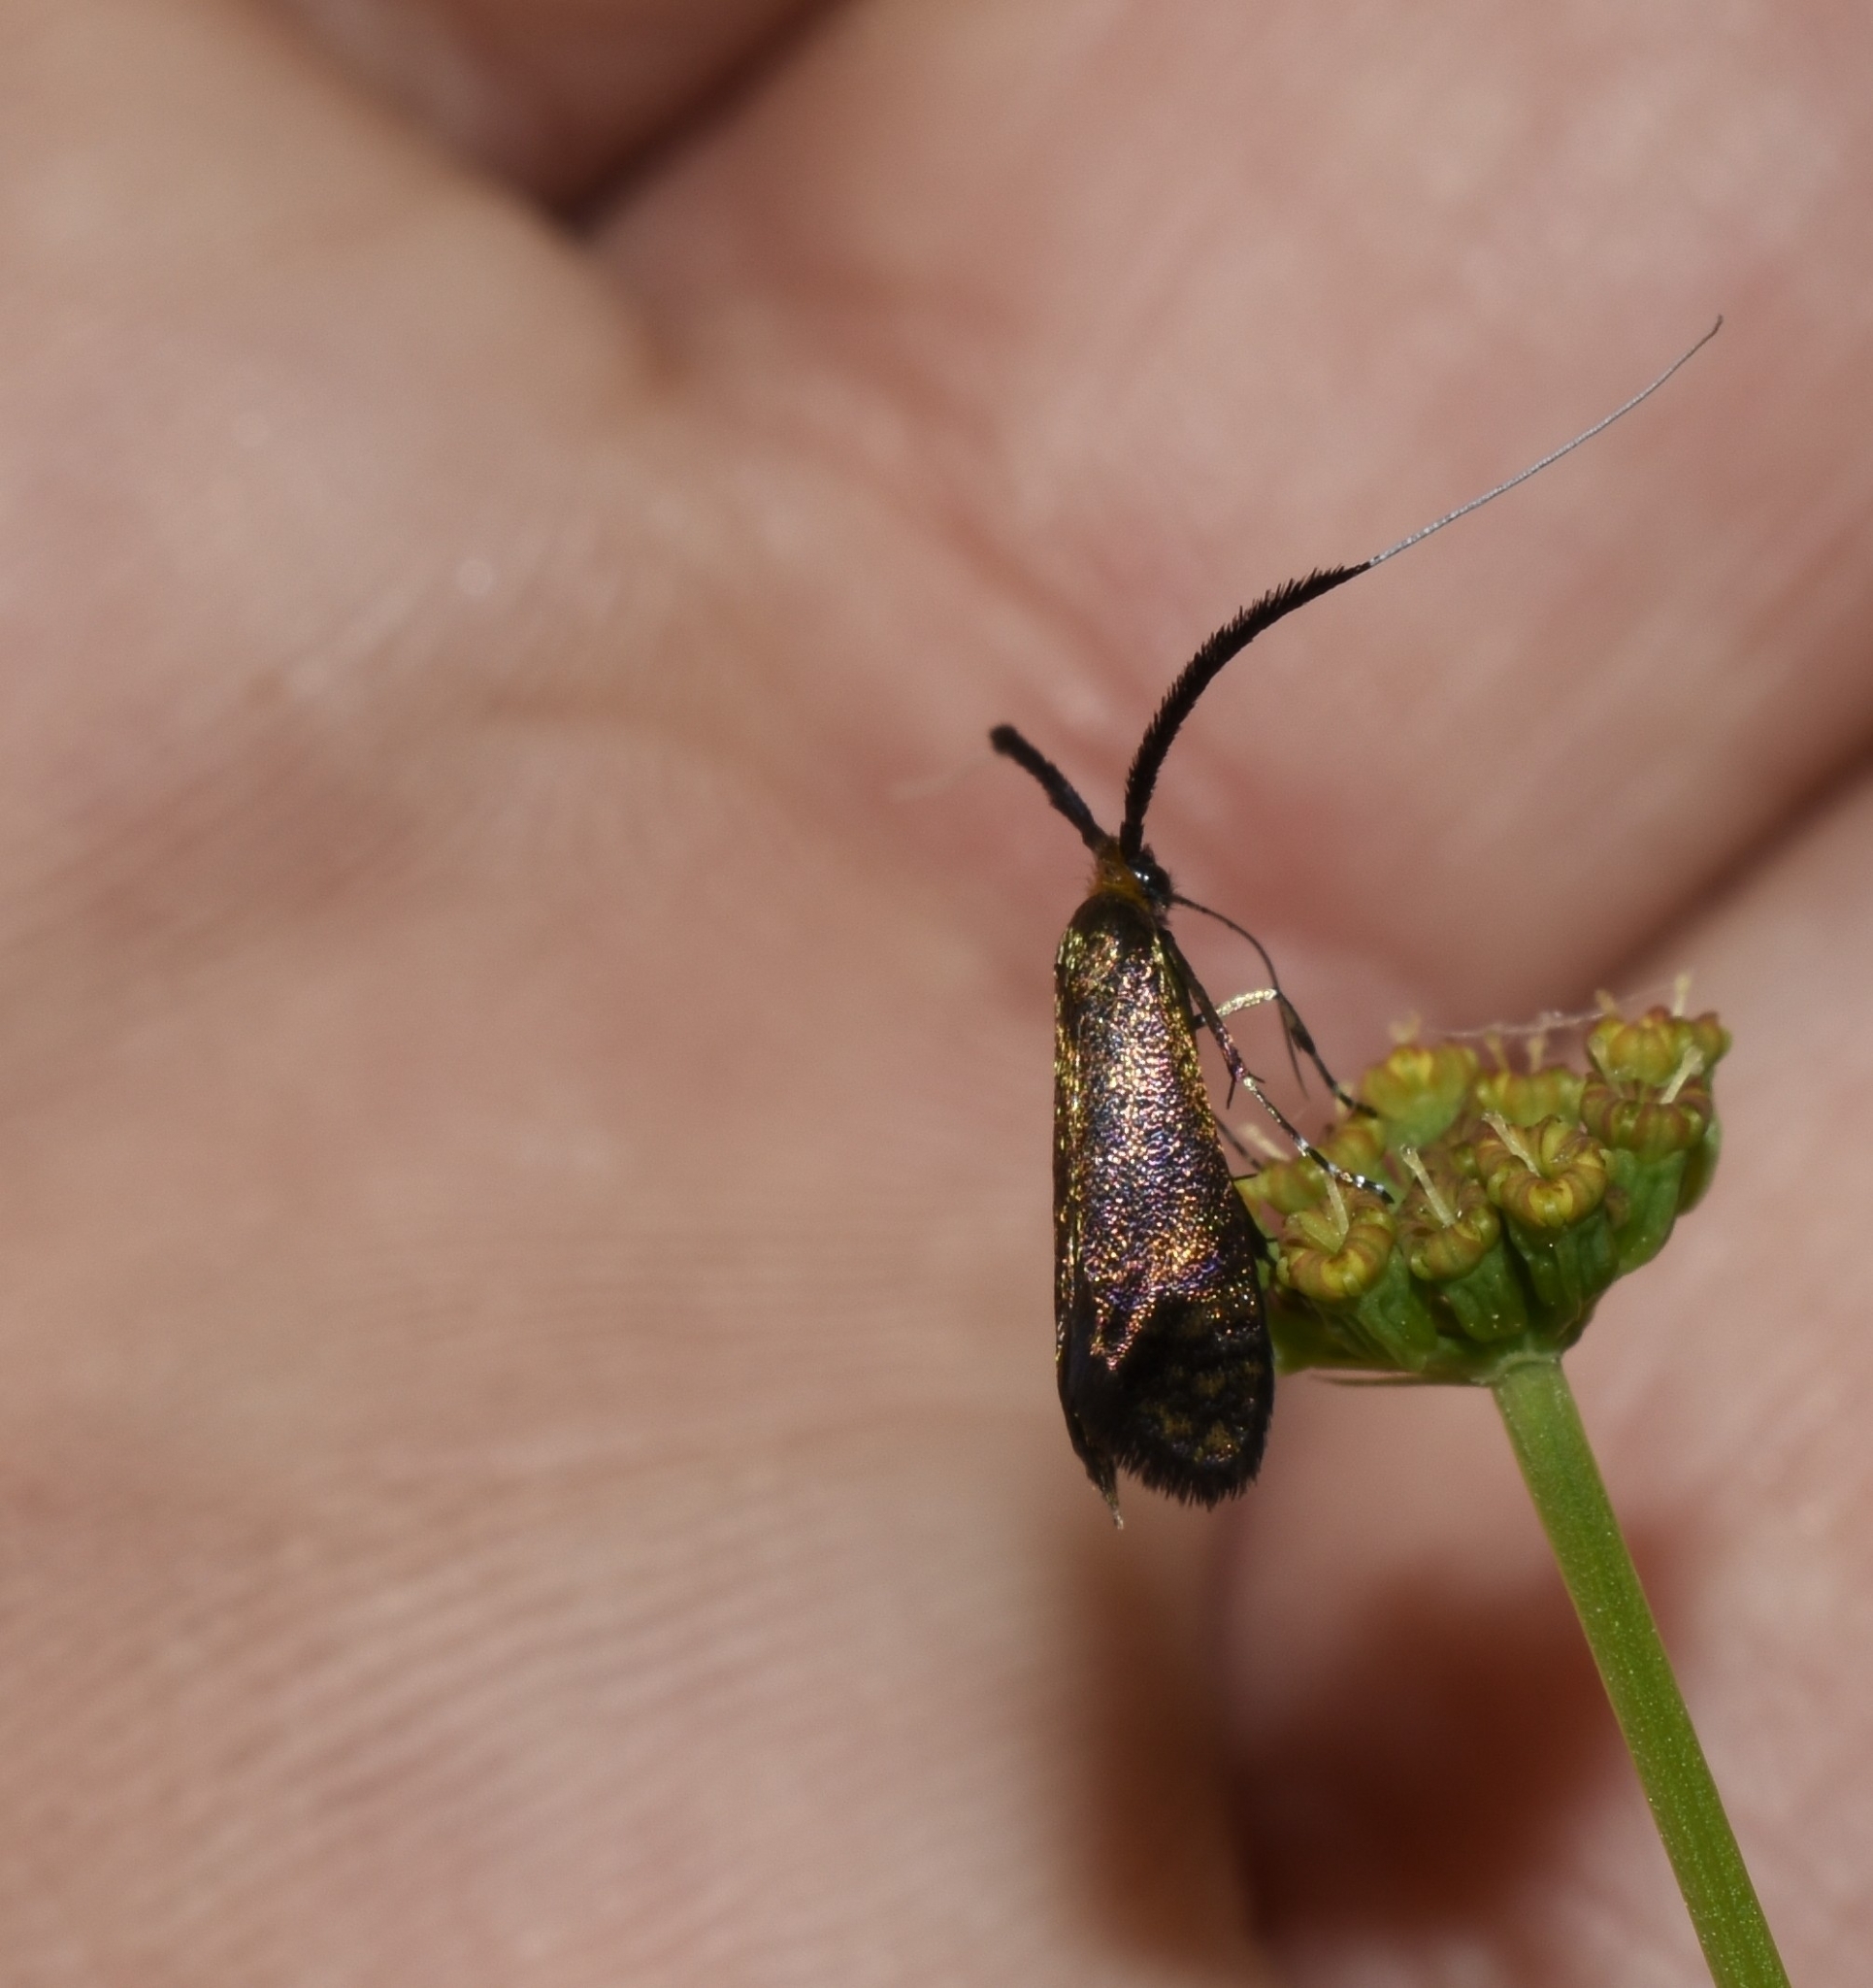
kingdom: Animalia
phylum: Arthropoda
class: Insecta
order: Lepidoptera
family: Adelidae
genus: Adela
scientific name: Adela caeruleella
